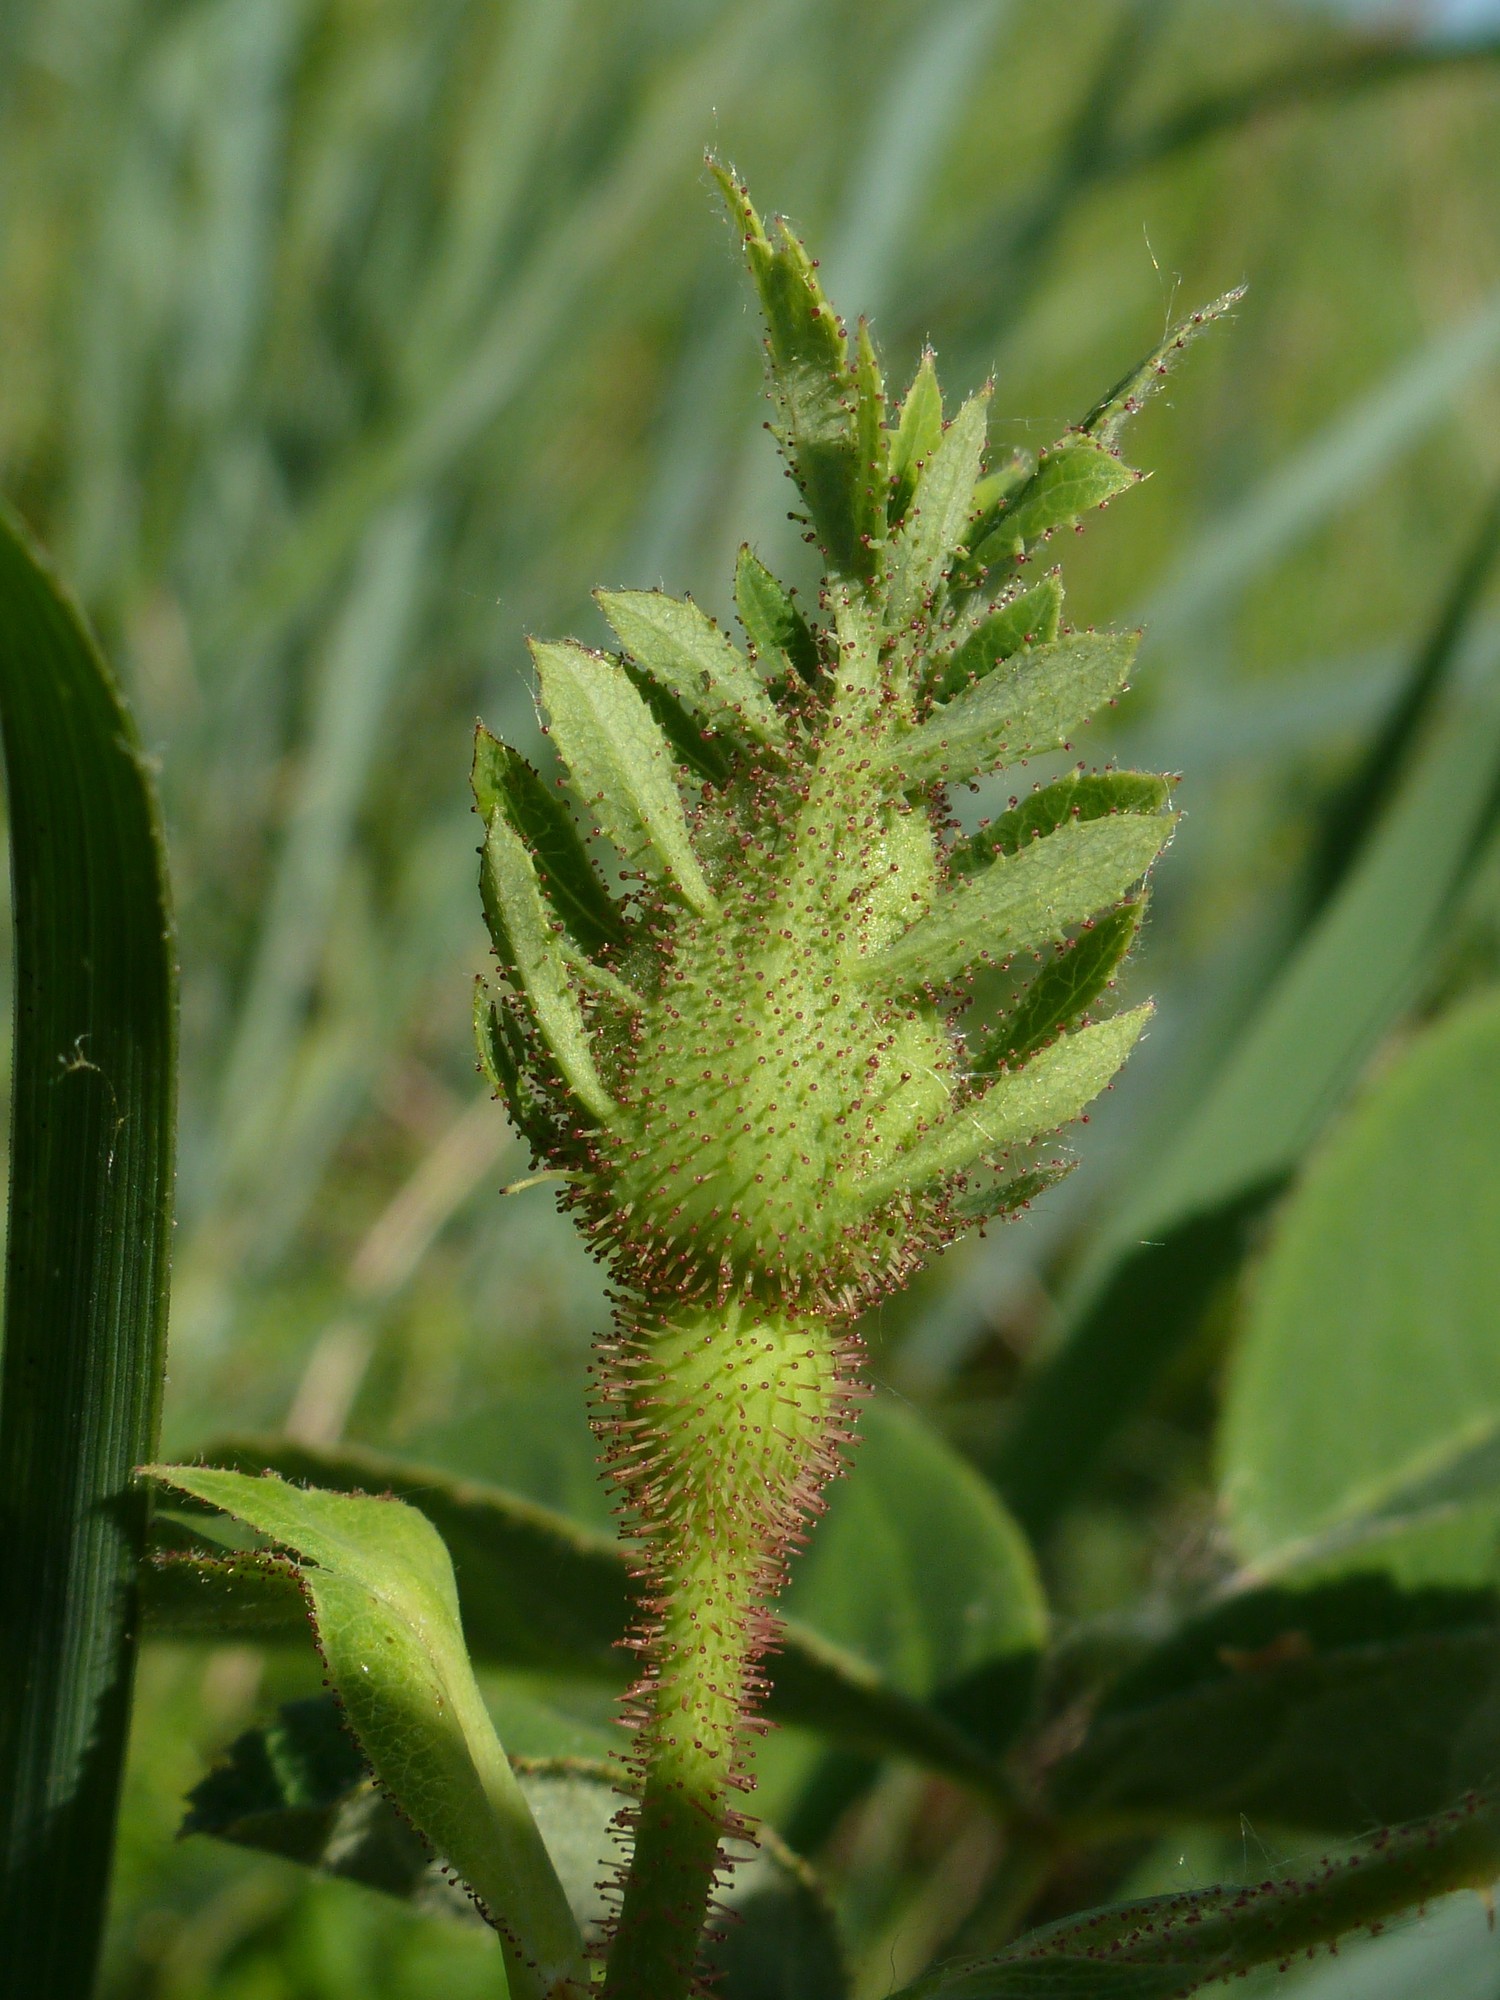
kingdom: Plantae
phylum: Tracheophyta
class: Magnoliopsida
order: Rosales
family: Rosaceae
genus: Rosa
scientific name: Rosa gallica
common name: French rose
